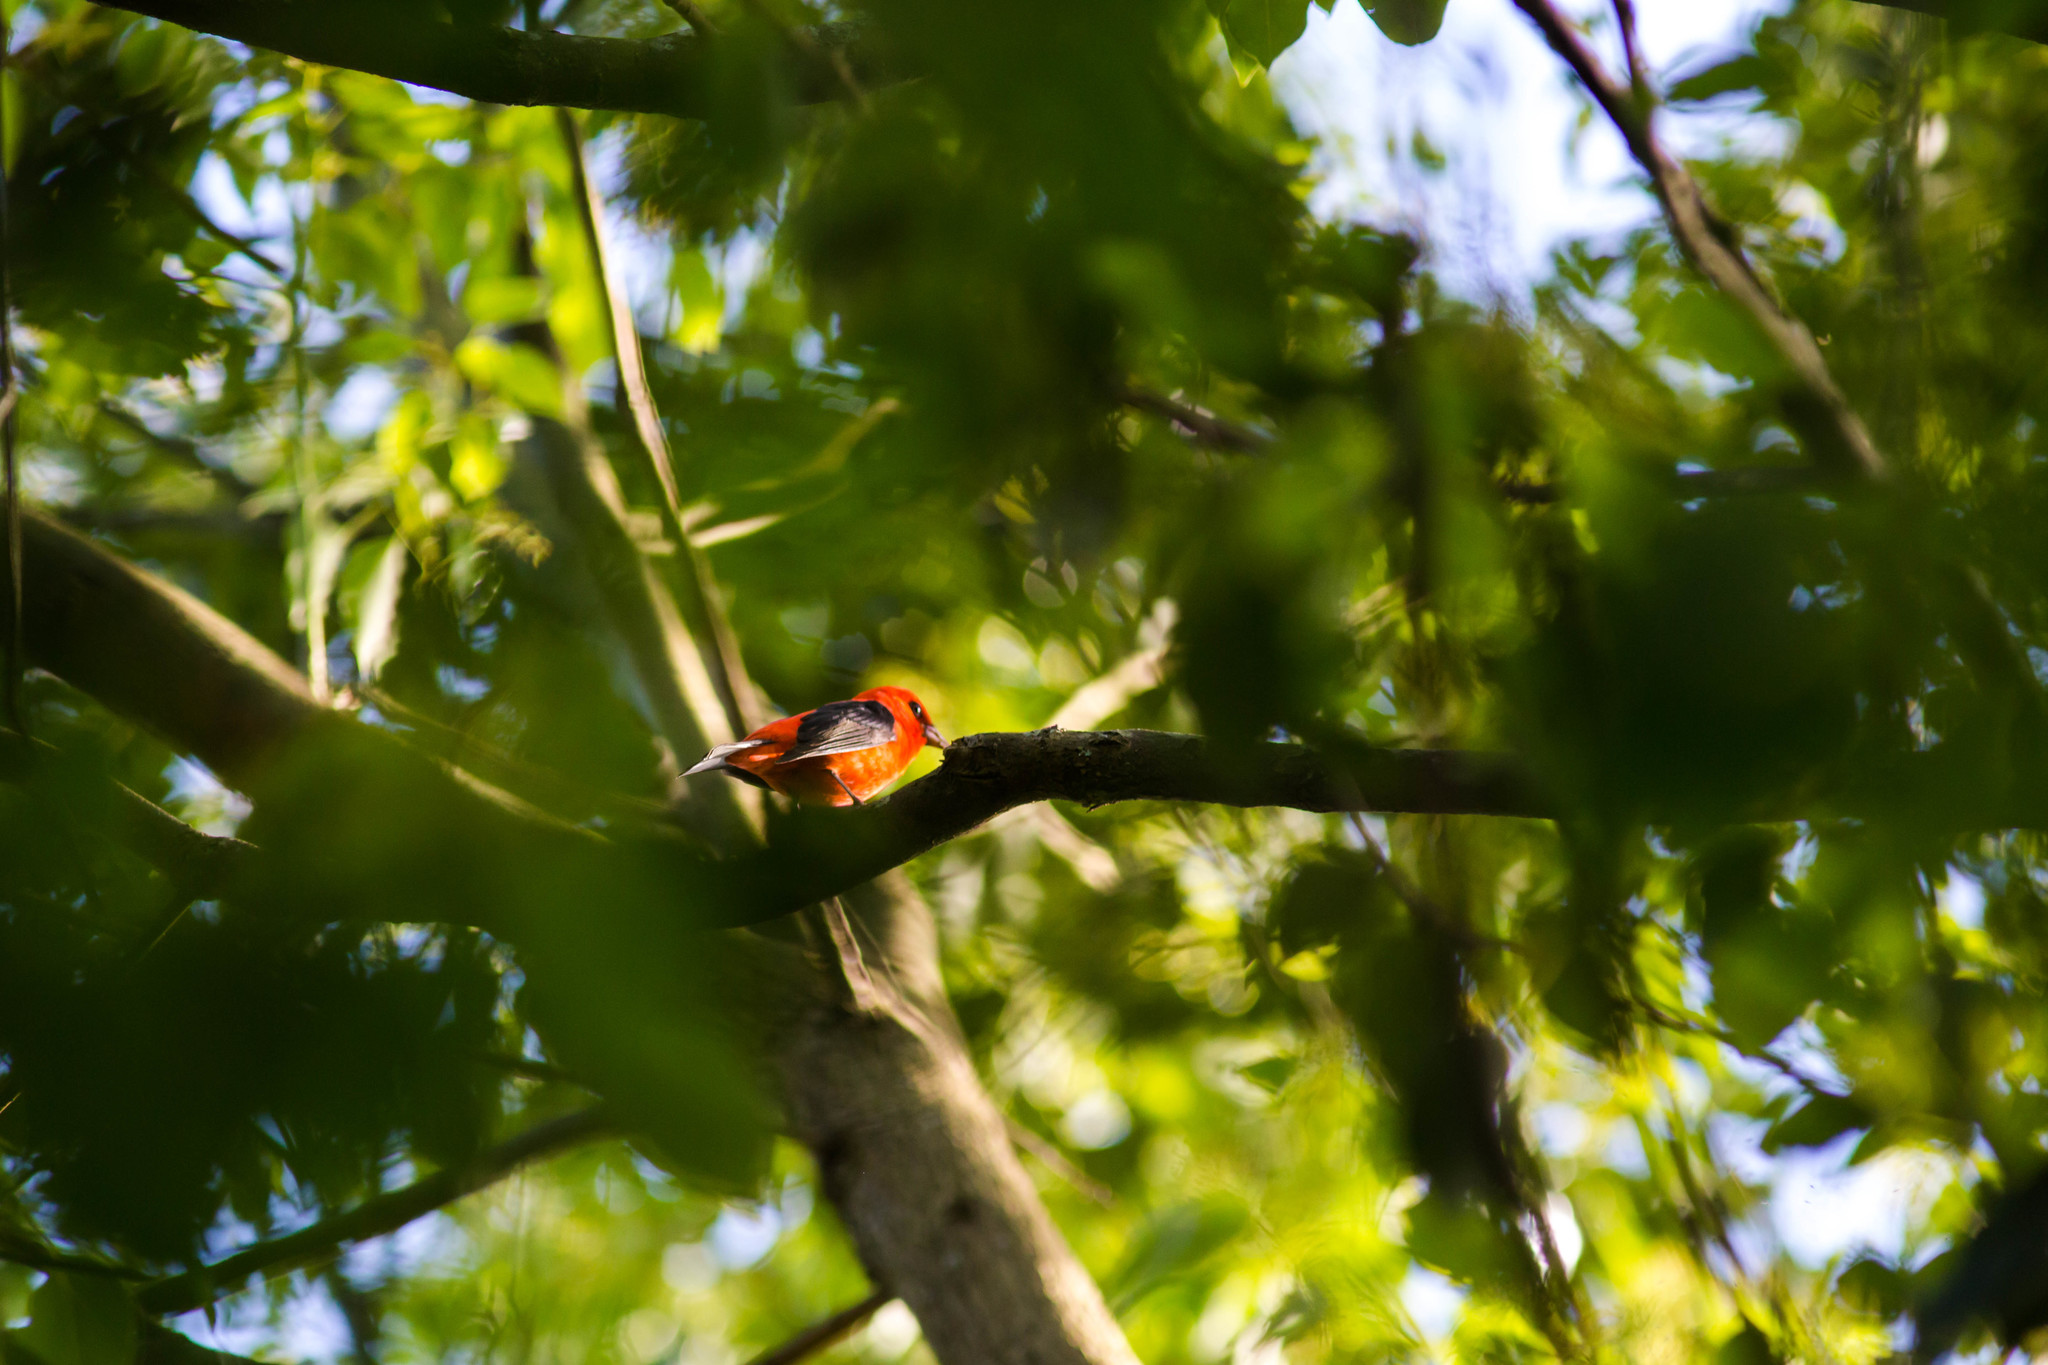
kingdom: Animalia
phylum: Chordata
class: Aves
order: Passeriformes
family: Cardinalidae
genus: Piranga
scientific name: Piranga olivacea
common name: Scarlet tanager
